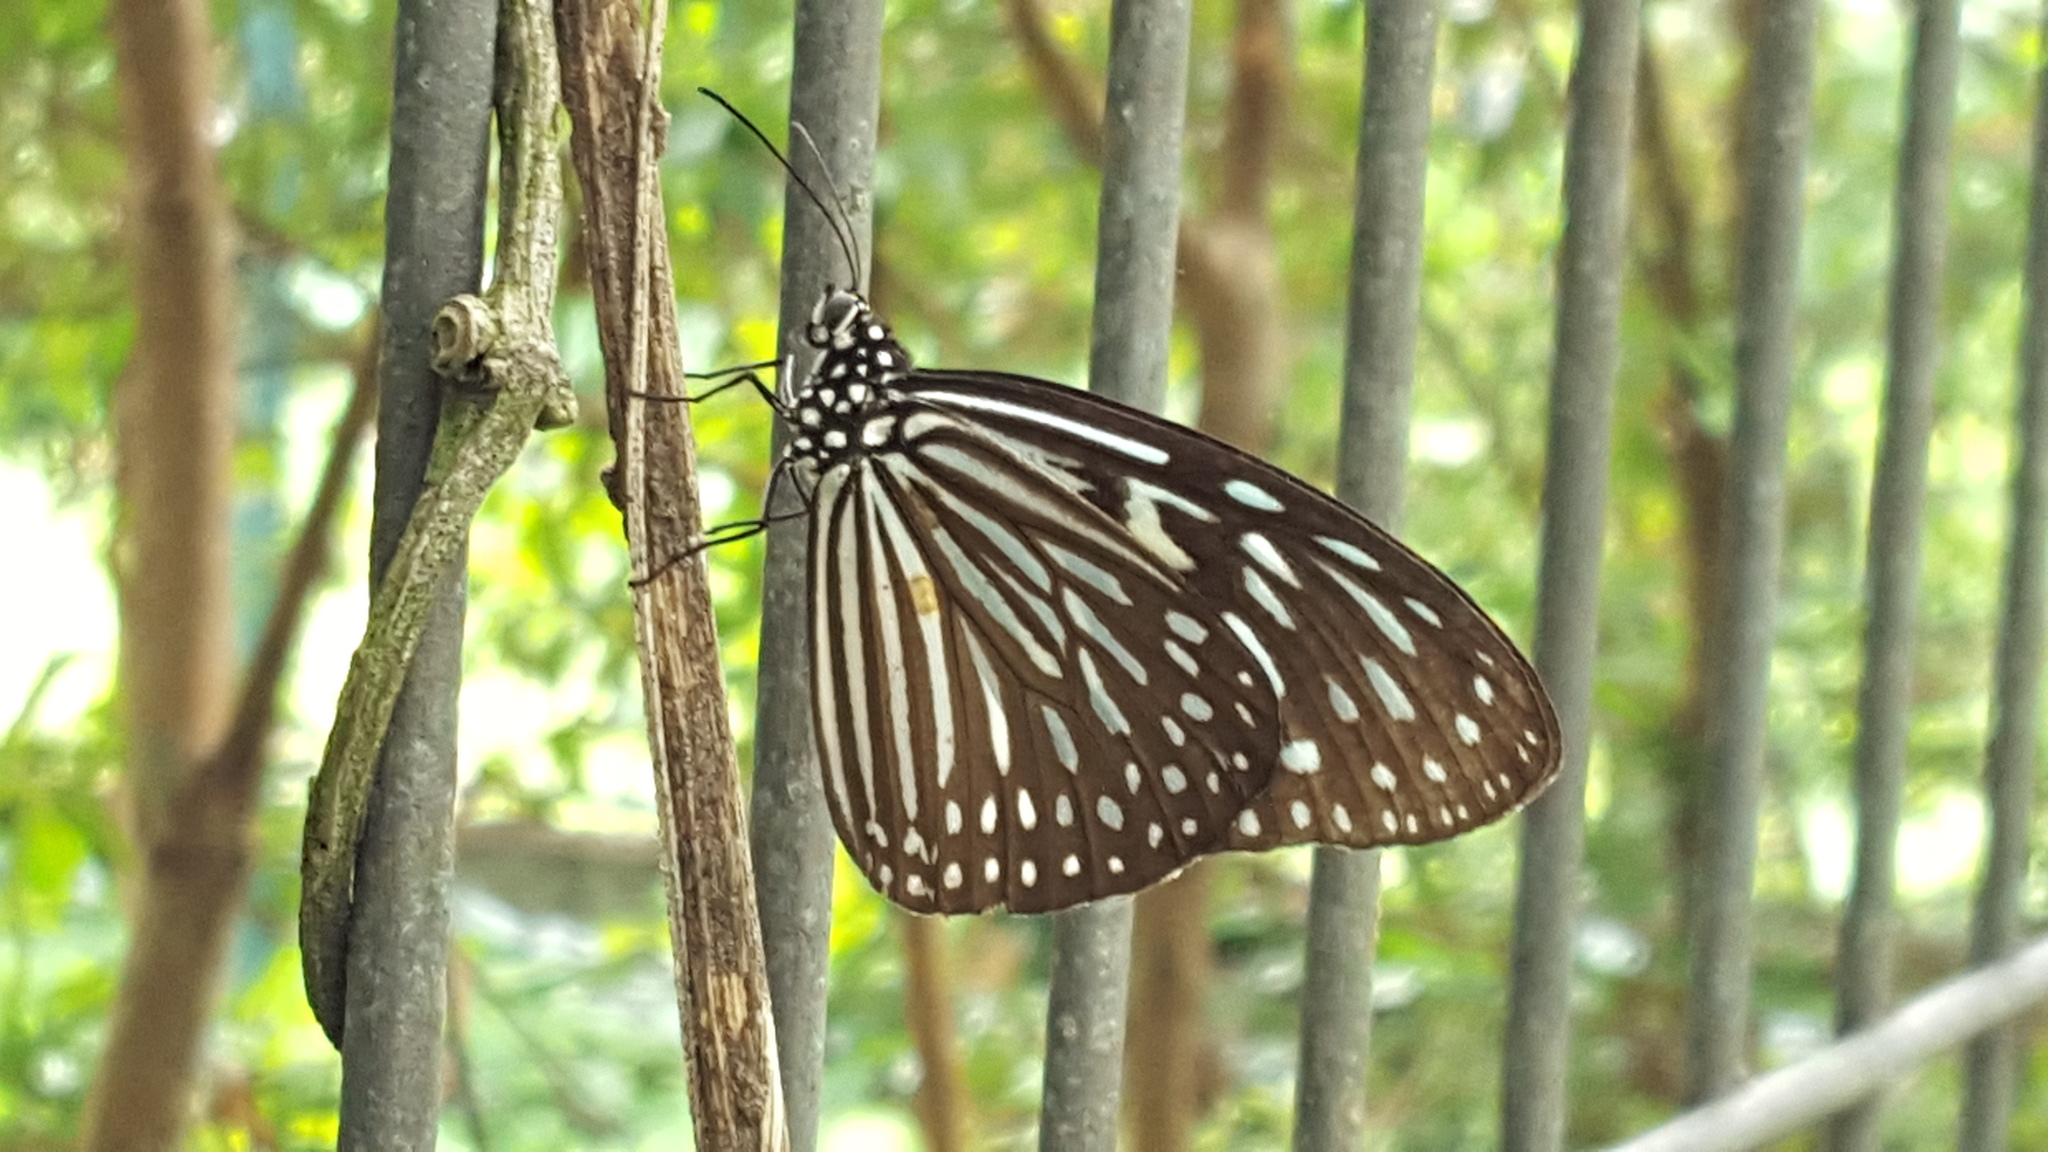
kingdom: Animalia
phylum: Arthropoda
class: Insecta
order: Lepidoptera
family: Nymphalidae
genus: Ideopsis
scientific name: Ideopsis vulgaris
